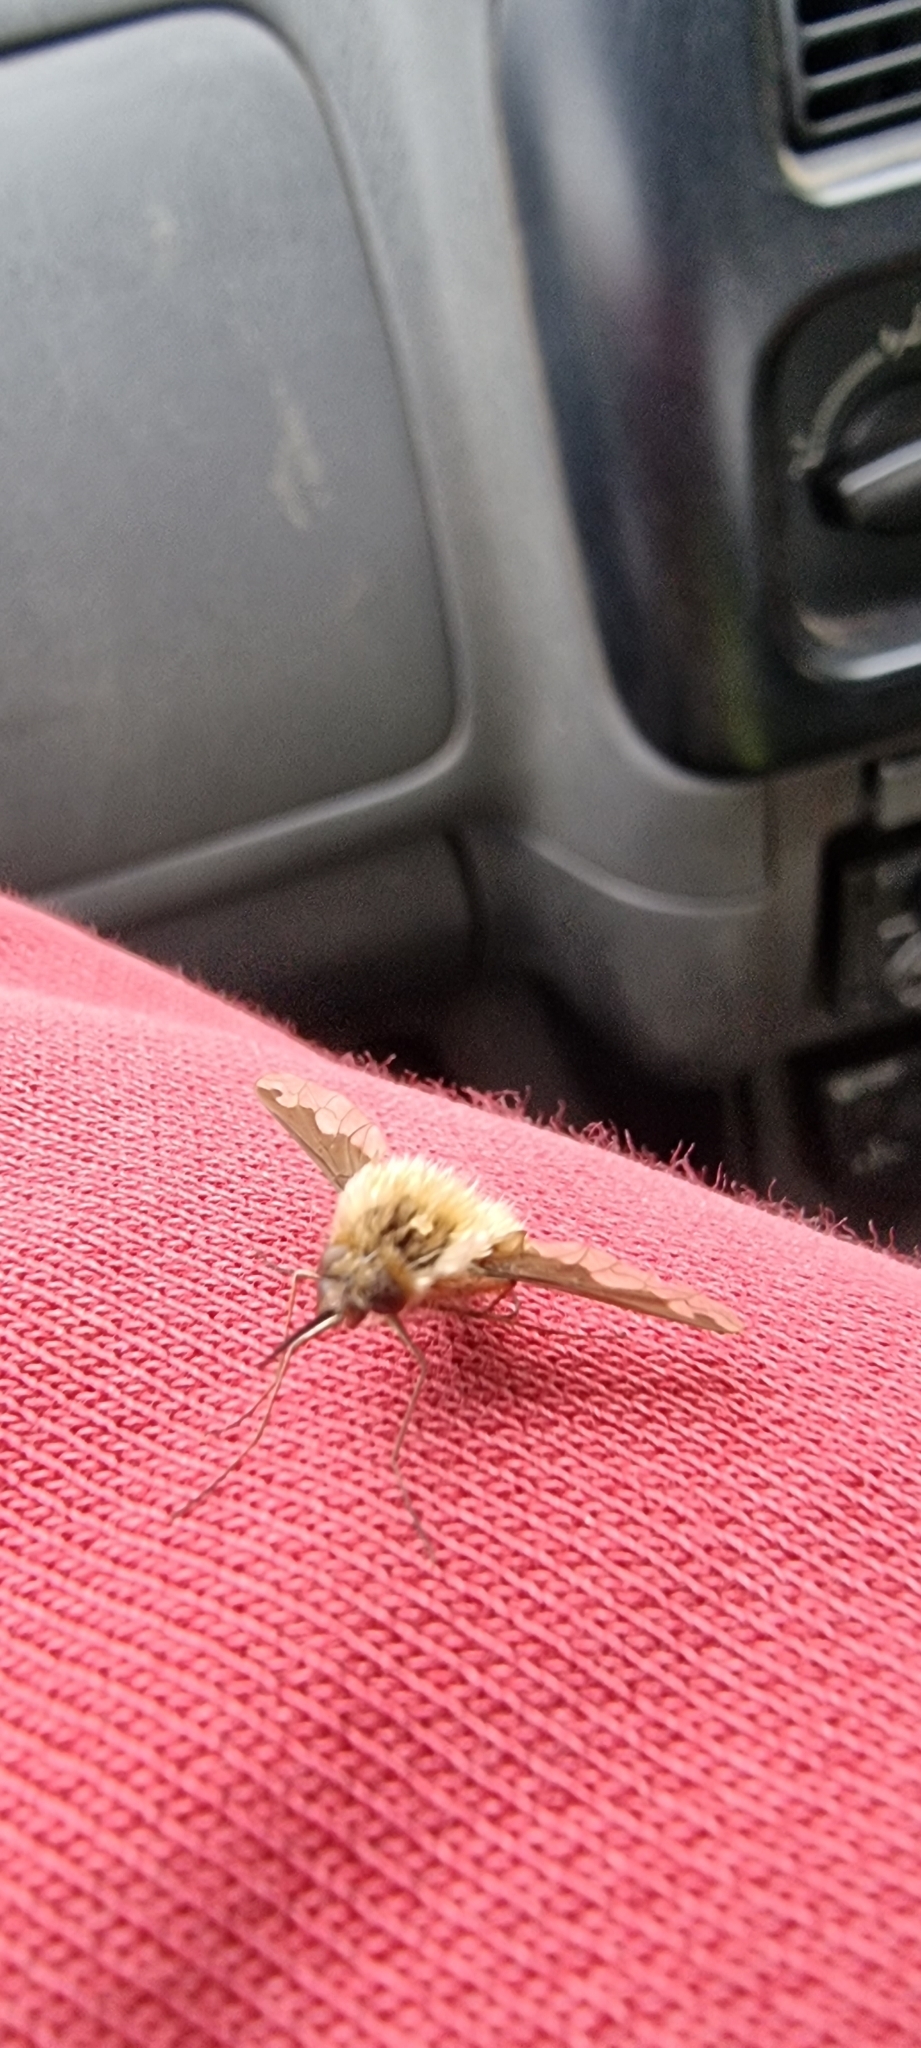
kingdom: Animalia
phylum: Arthropoda
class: Insecta
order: Diptera
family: Bombyliidae
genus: Bombylius
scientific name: Bombylius major
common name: Bee fly
